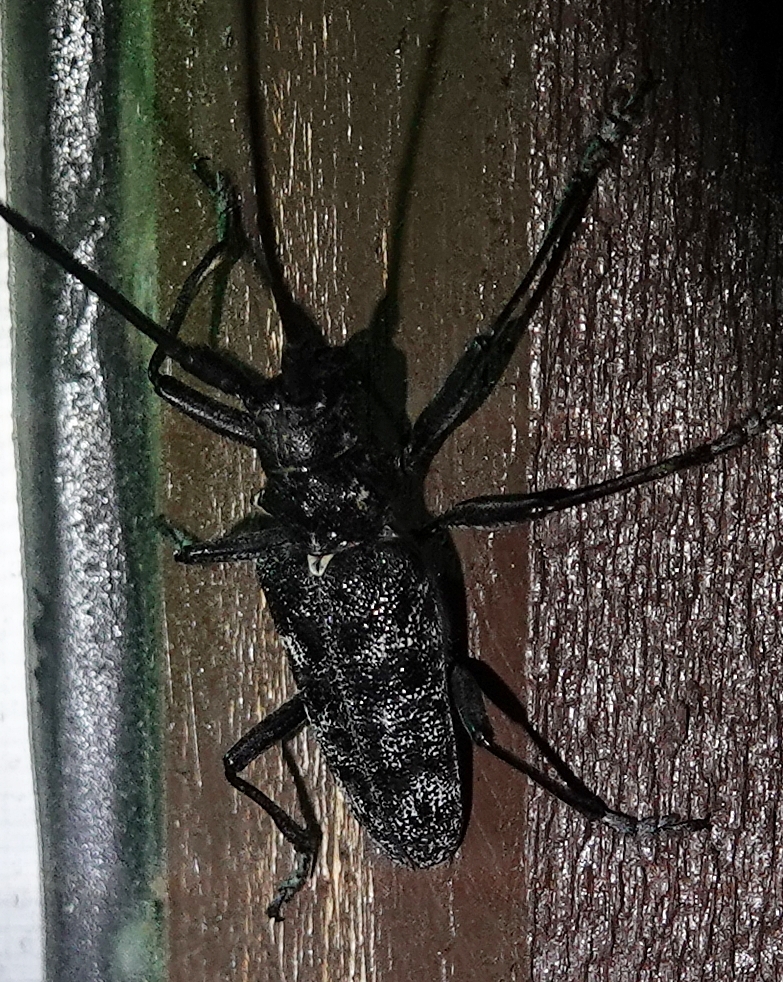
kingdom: Animalia
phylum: Arthropoda
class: Insecta
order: Coleoptera
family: Cerambycidae
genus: Monochamus
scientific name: Monochamus clamator
